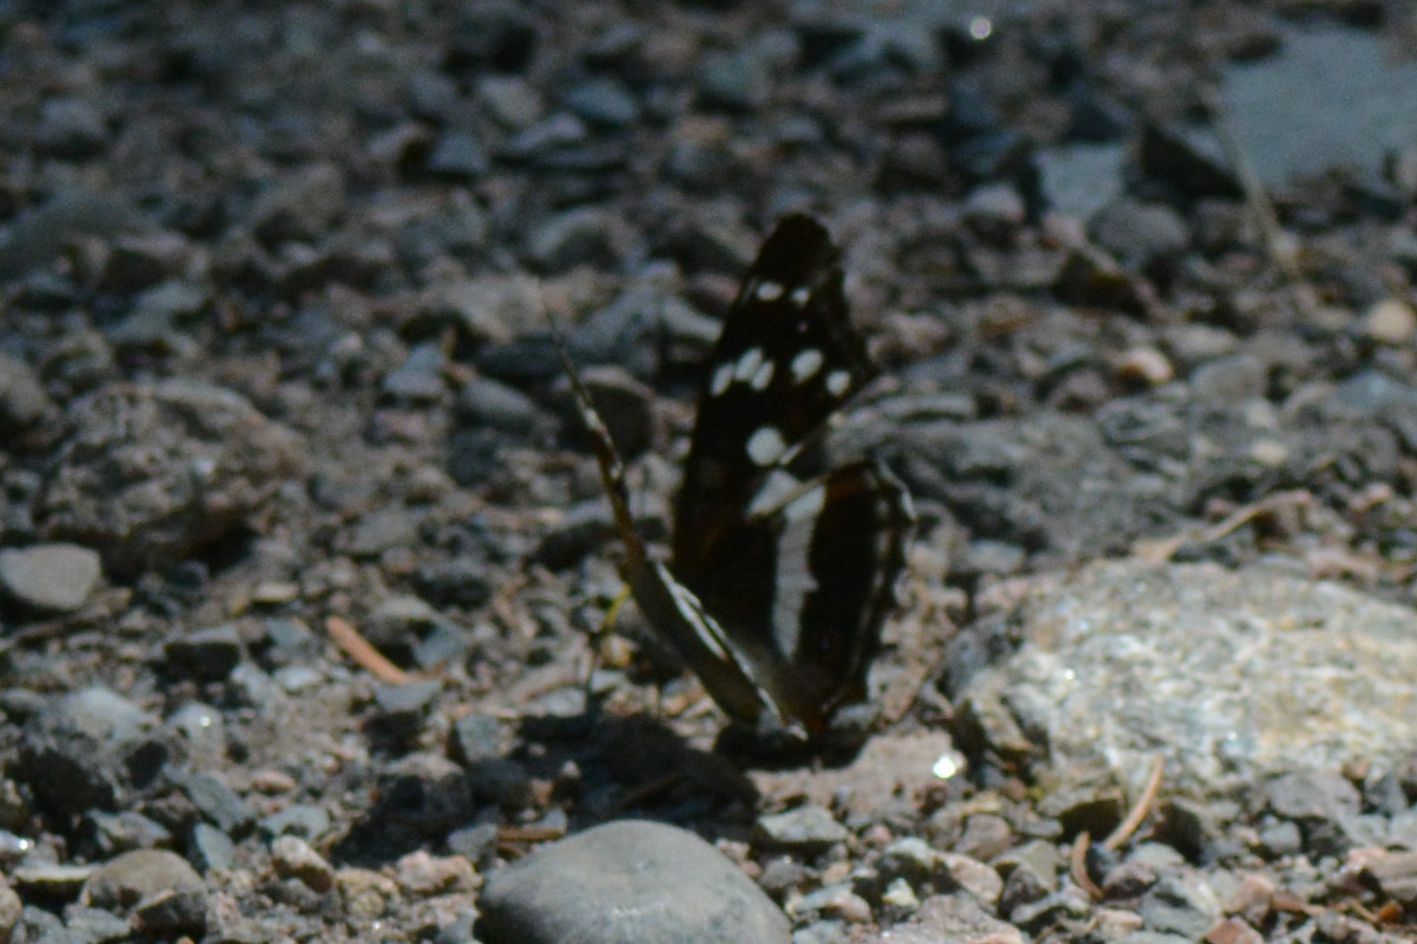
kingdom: Animalia
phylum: Arthropoda
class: Insecta
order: Lepidoptera
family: Nymphalidae
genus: Apatura
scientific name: Apatura iris
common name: Purple emperor
